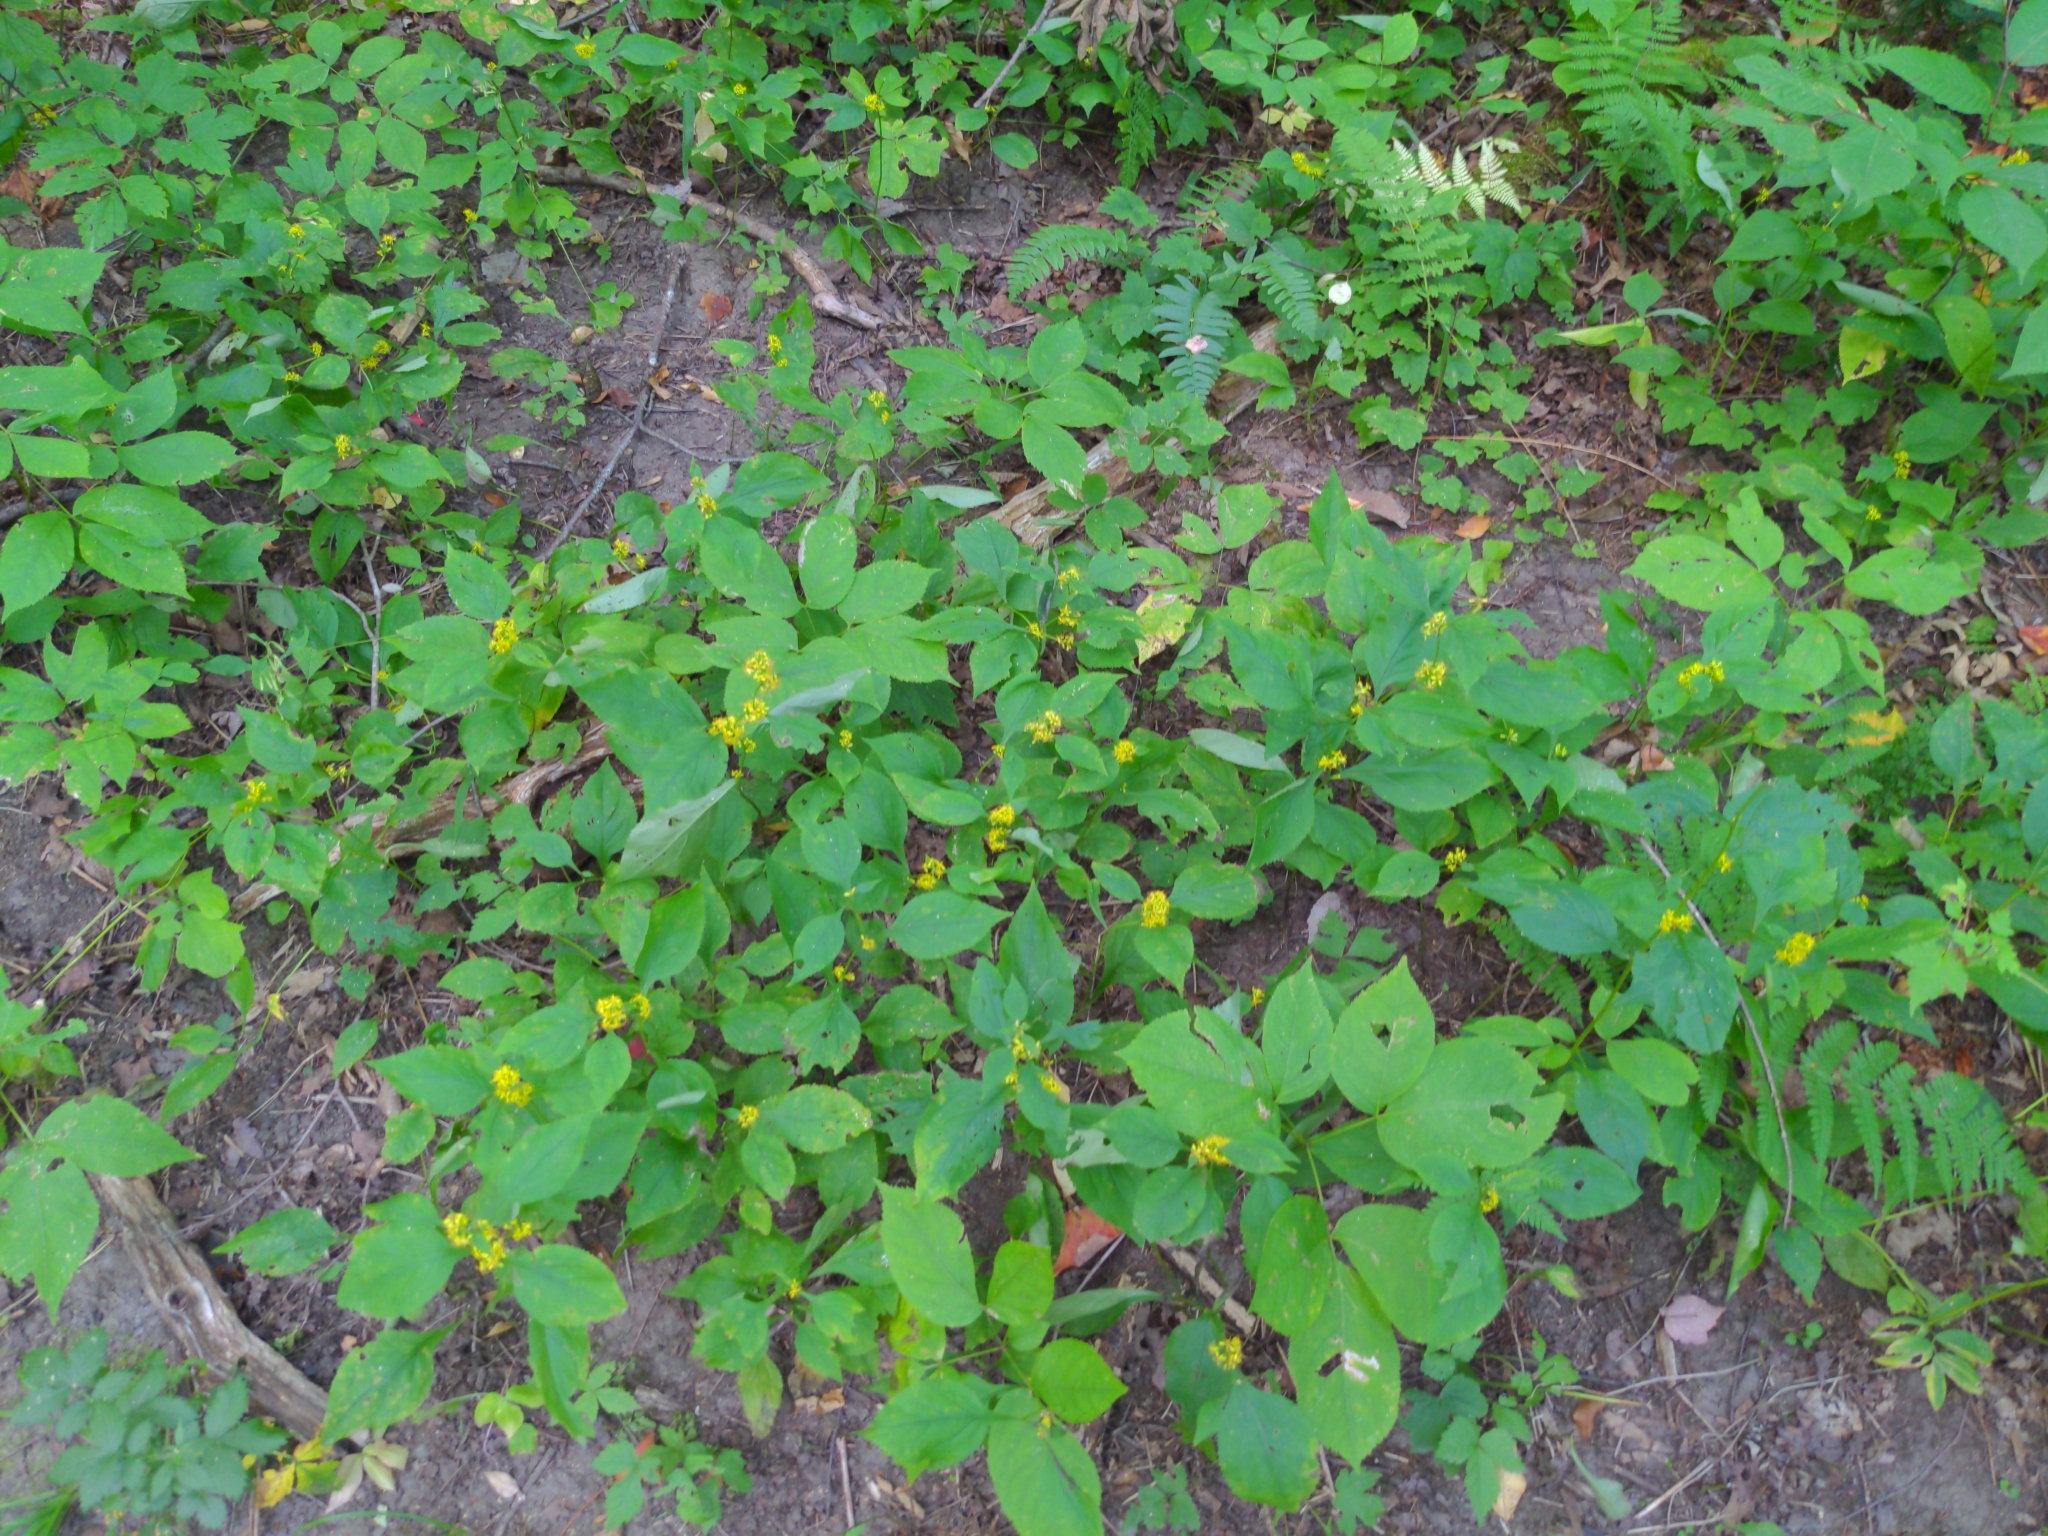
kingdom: Plantae
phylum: Tracheophyta
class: Magnoliopsida
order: Asterales
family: Asteraceae
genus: Solidago
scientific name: Solidago flexicaulis
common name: Zig-zag goldenrod
